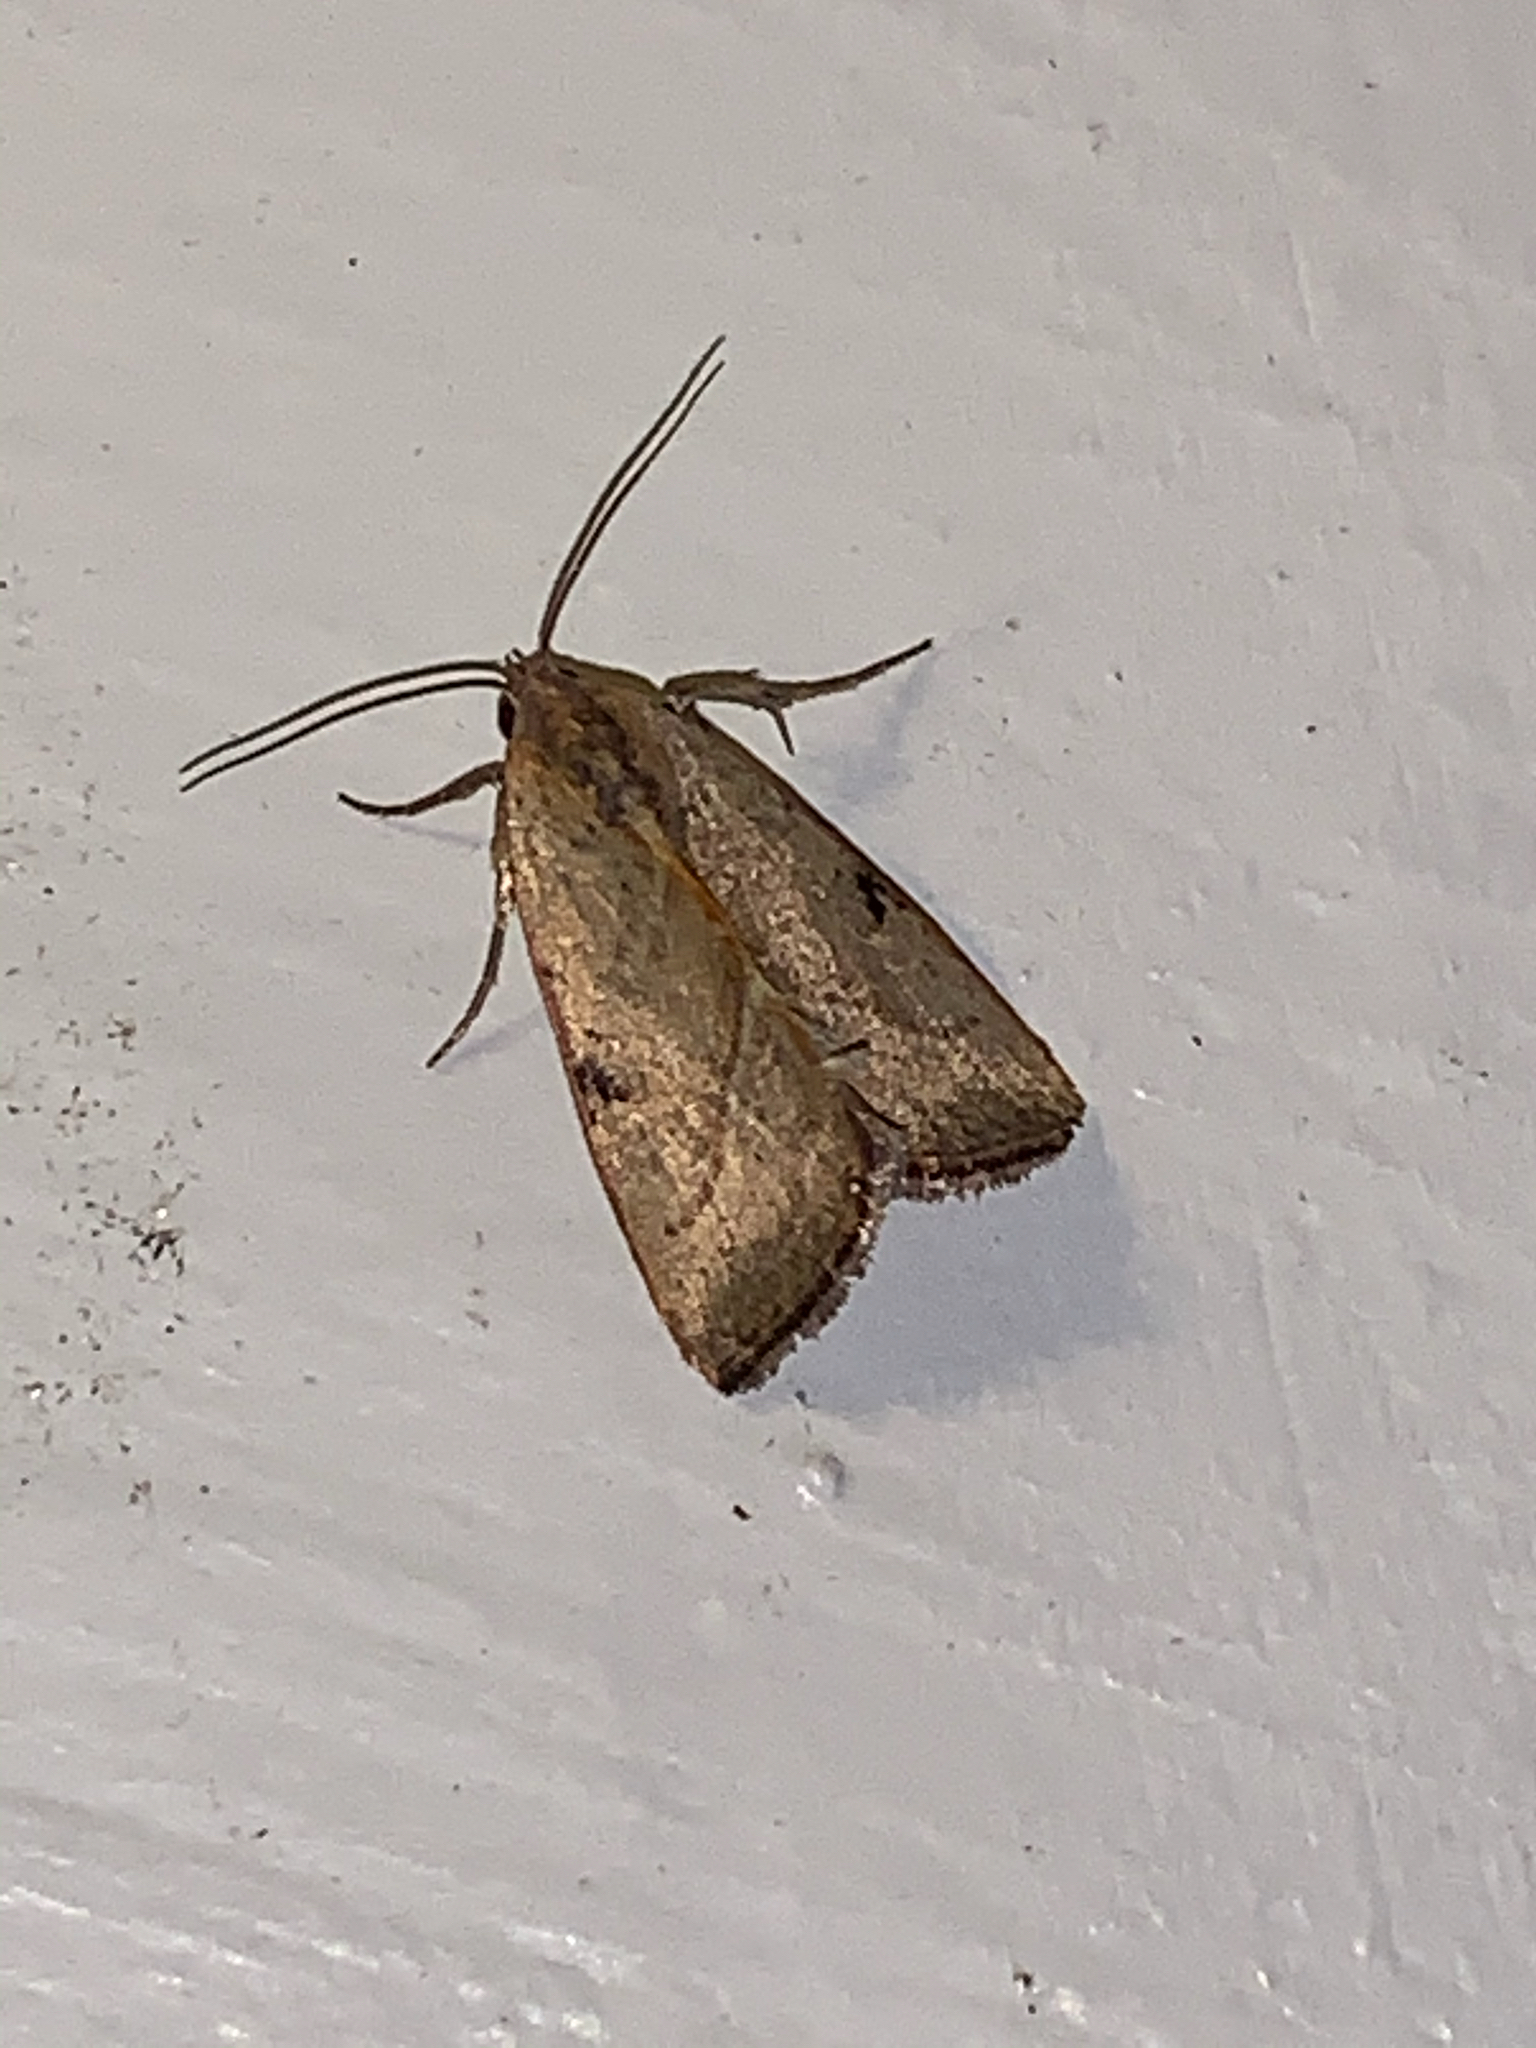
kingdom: Animalia
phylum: Arthropoda
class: Insecta
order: Lepidoptera
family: Noctuidae
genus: Galgula
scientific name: Galgula partita
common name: Wedgeling
